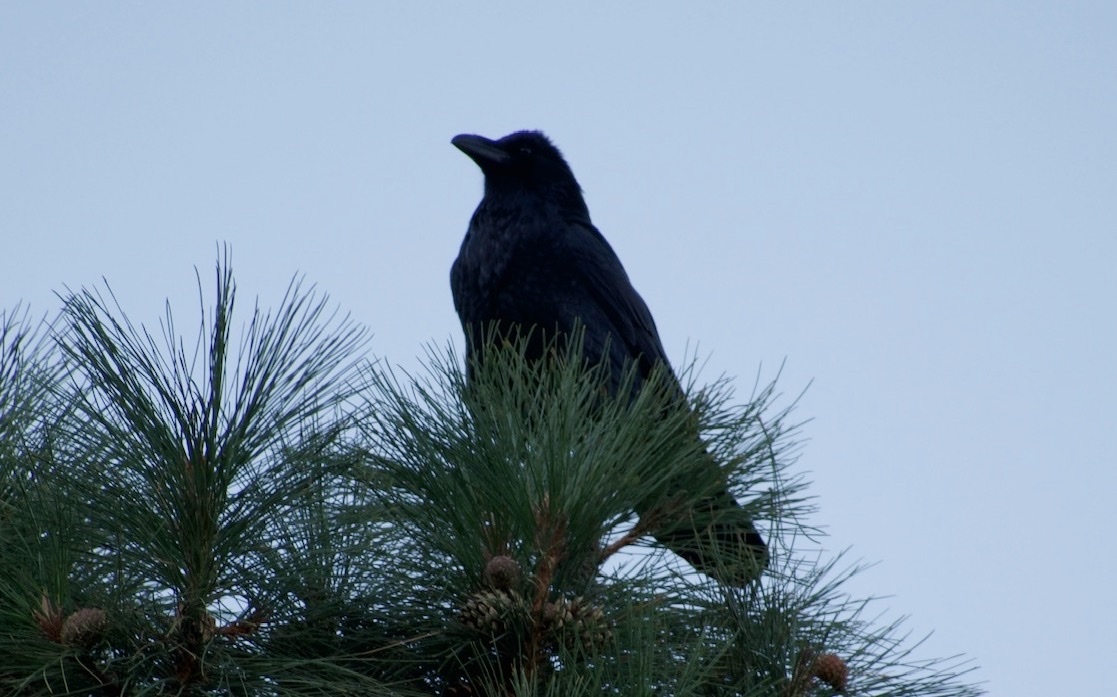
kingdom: Animalia
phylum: Chordata
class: Aves
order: Passeriformes
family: Corvidae
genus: Corvus
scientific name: Corvus corax
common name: Common raven
